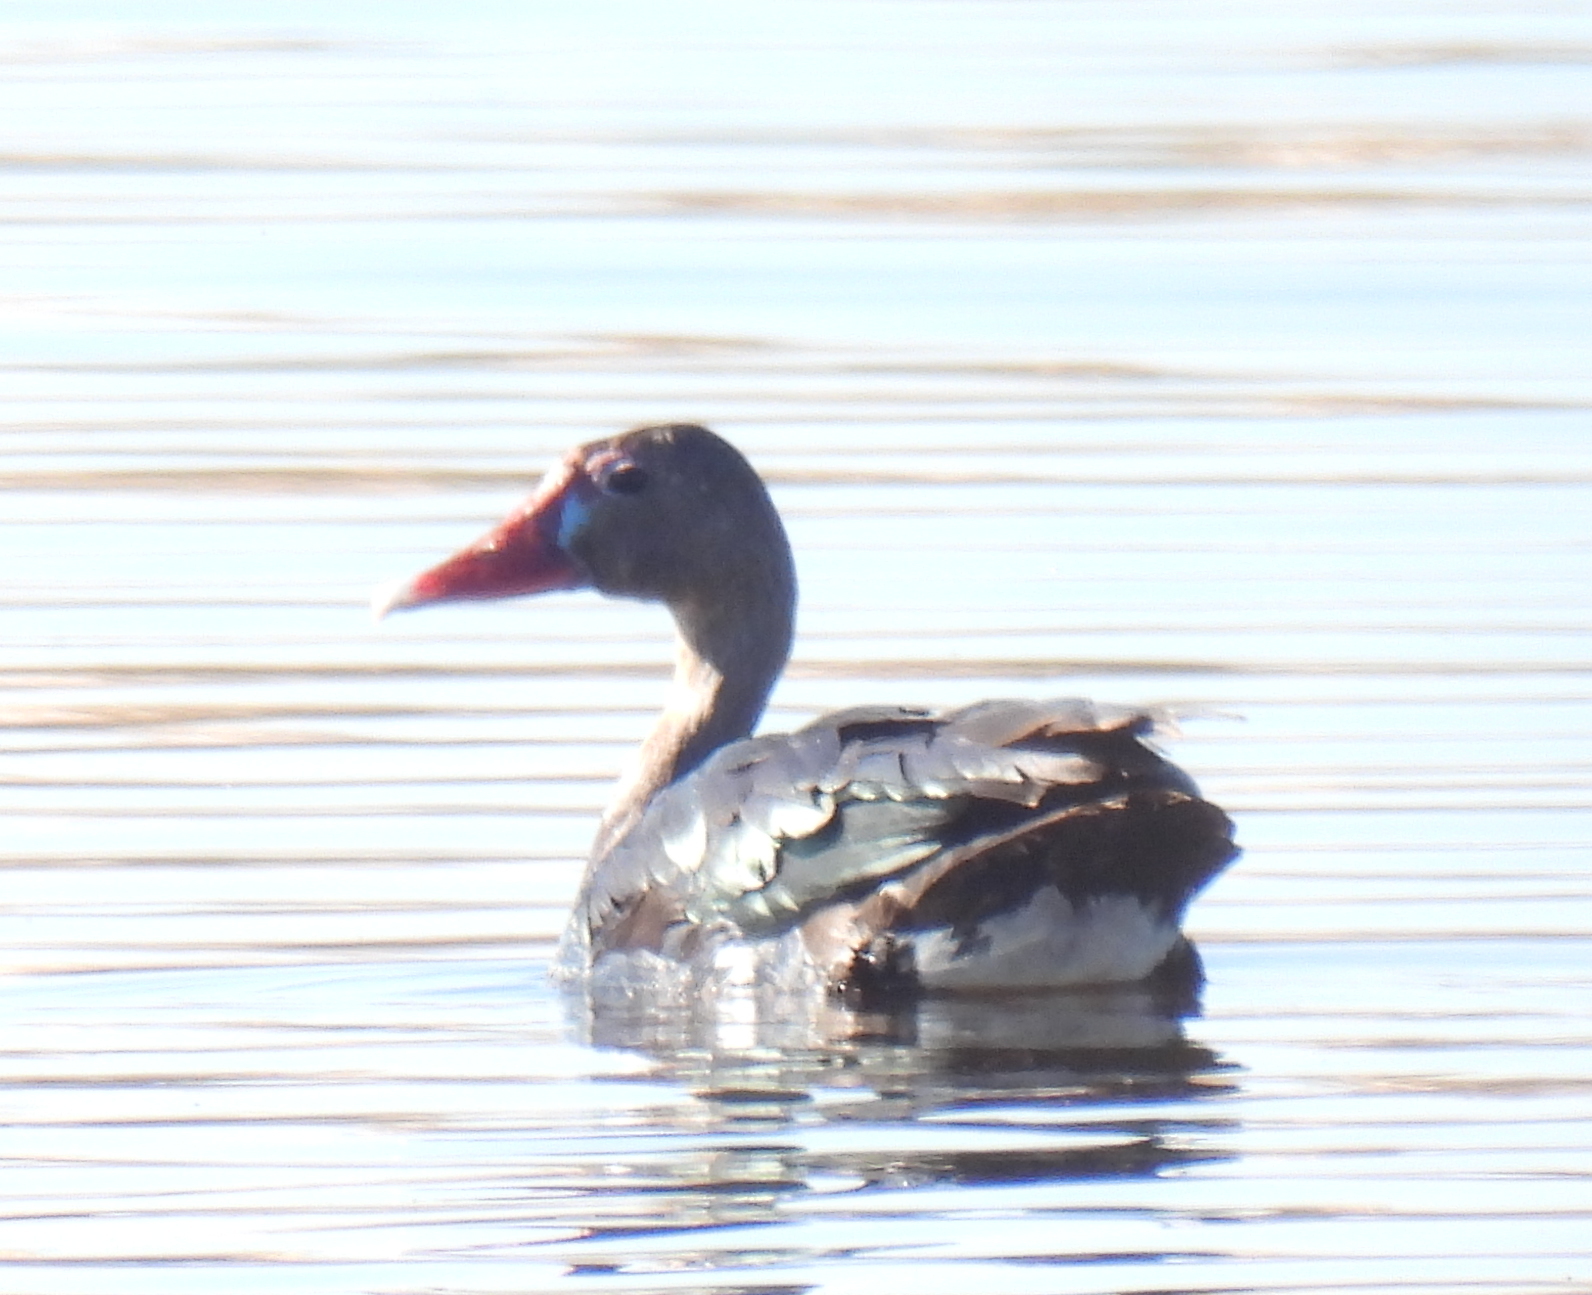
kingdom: Animalia
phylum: Chordata
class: Aves
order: Anseriformes
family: Anatidae
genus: Plectropterus
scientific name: Plectropterus gambensis
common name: Spur-winged goose
